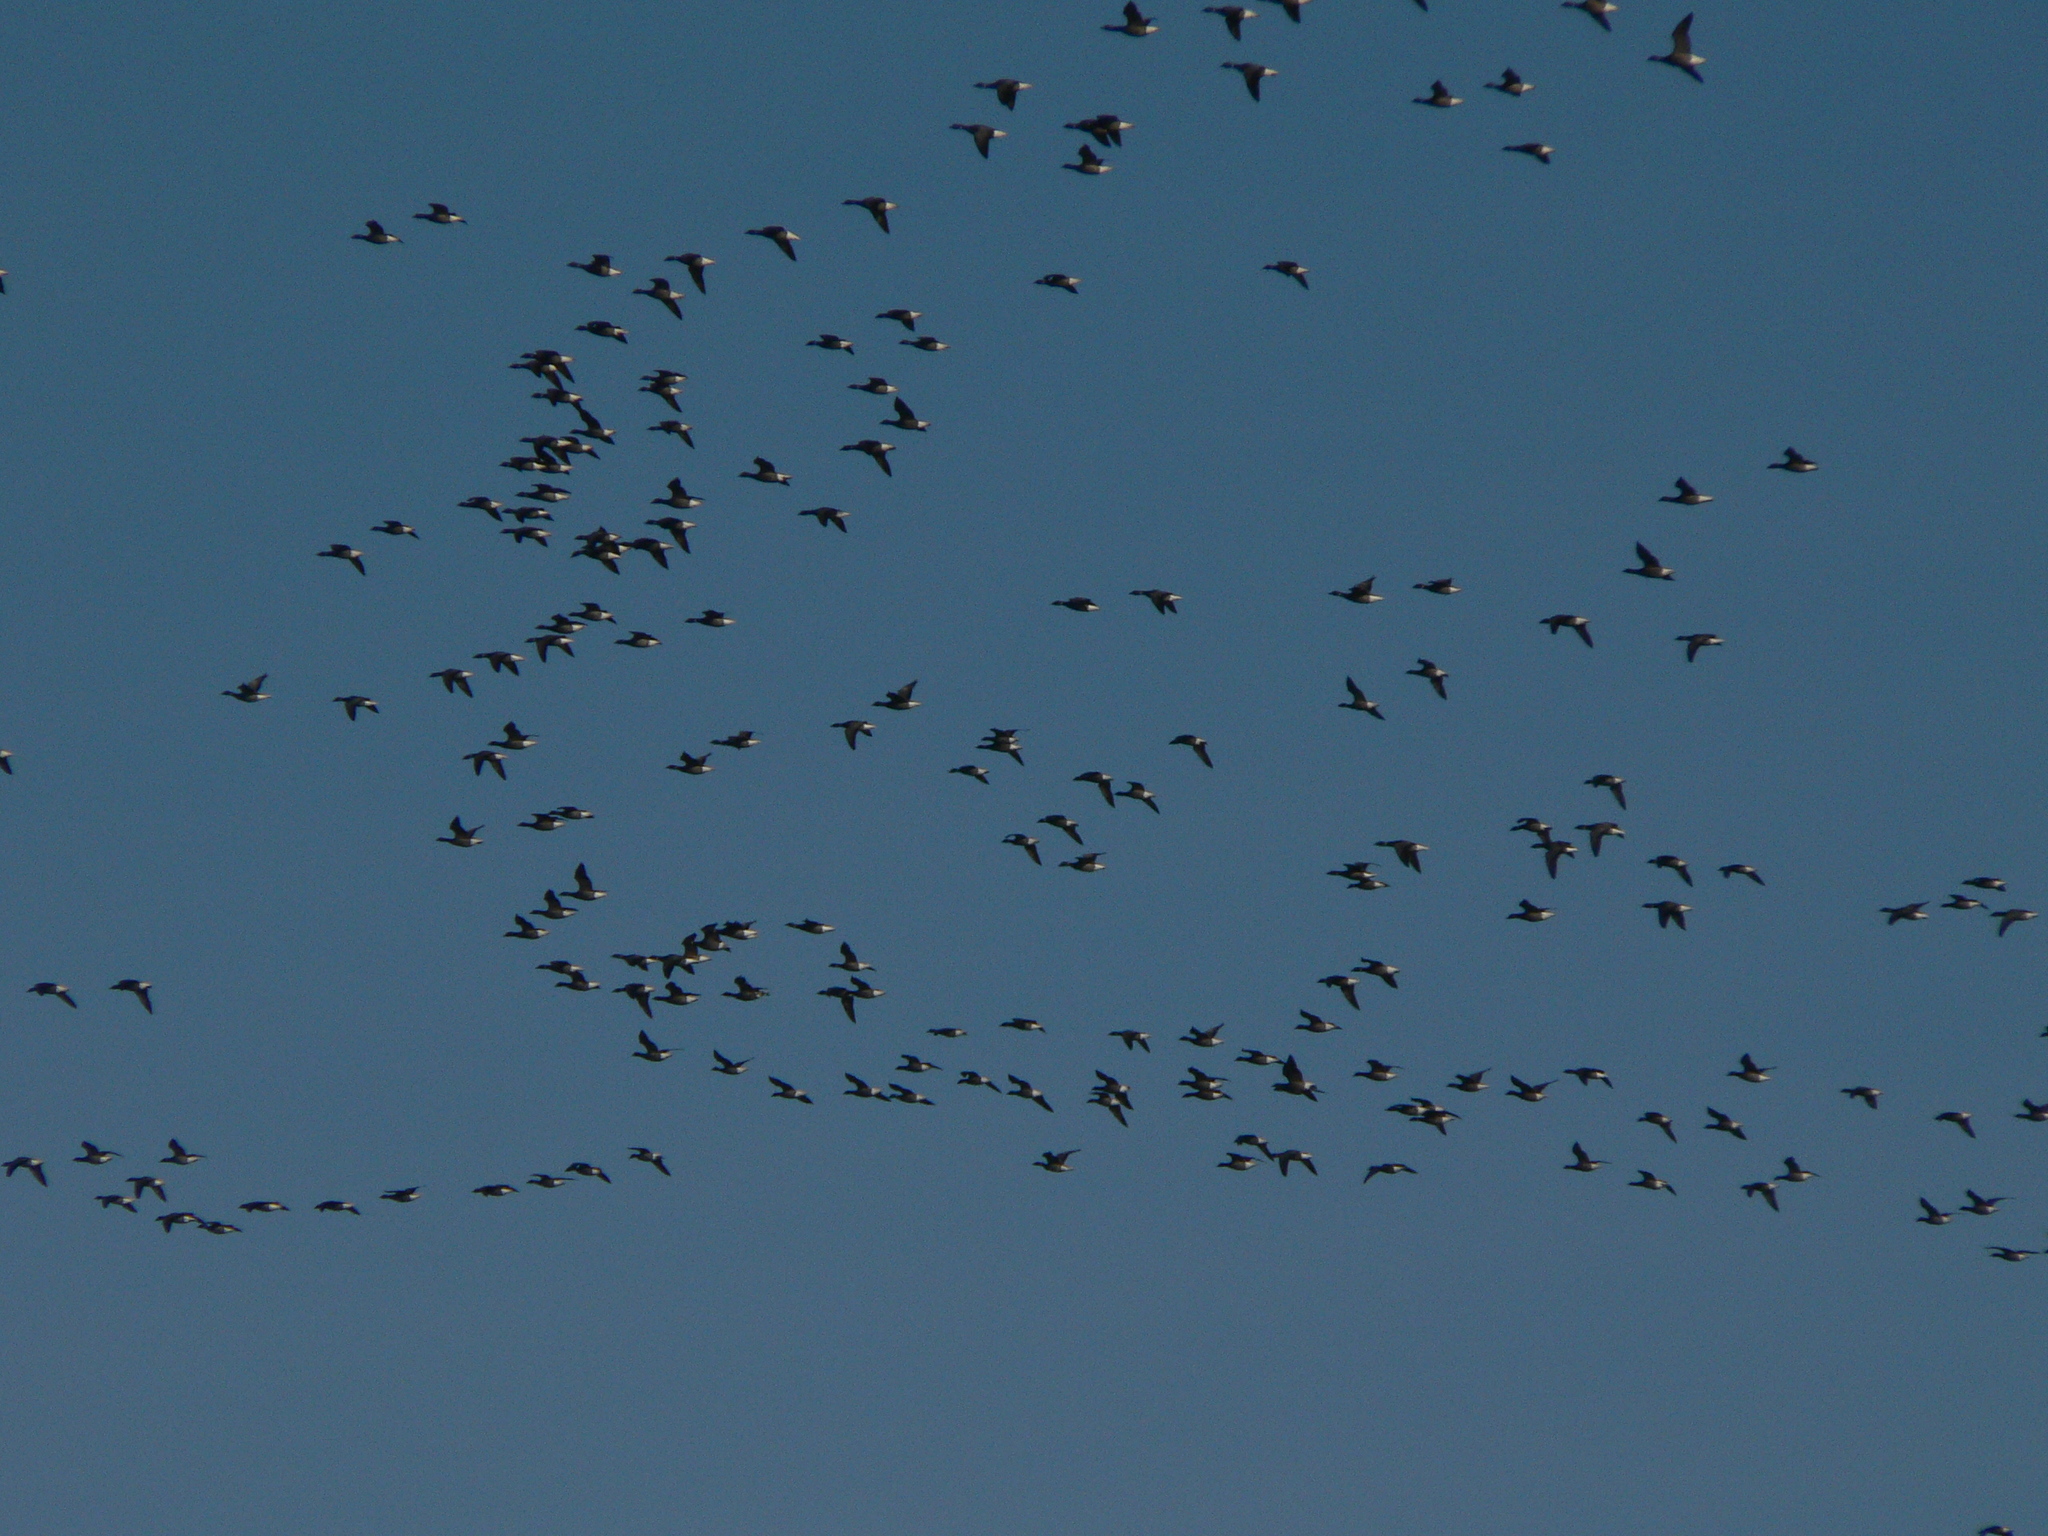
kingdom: Animalia
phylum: Chordata
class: Aves
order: Anseriformes
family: Anatidae
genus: Branta
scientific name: Branta bernicla
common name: Brant goose
